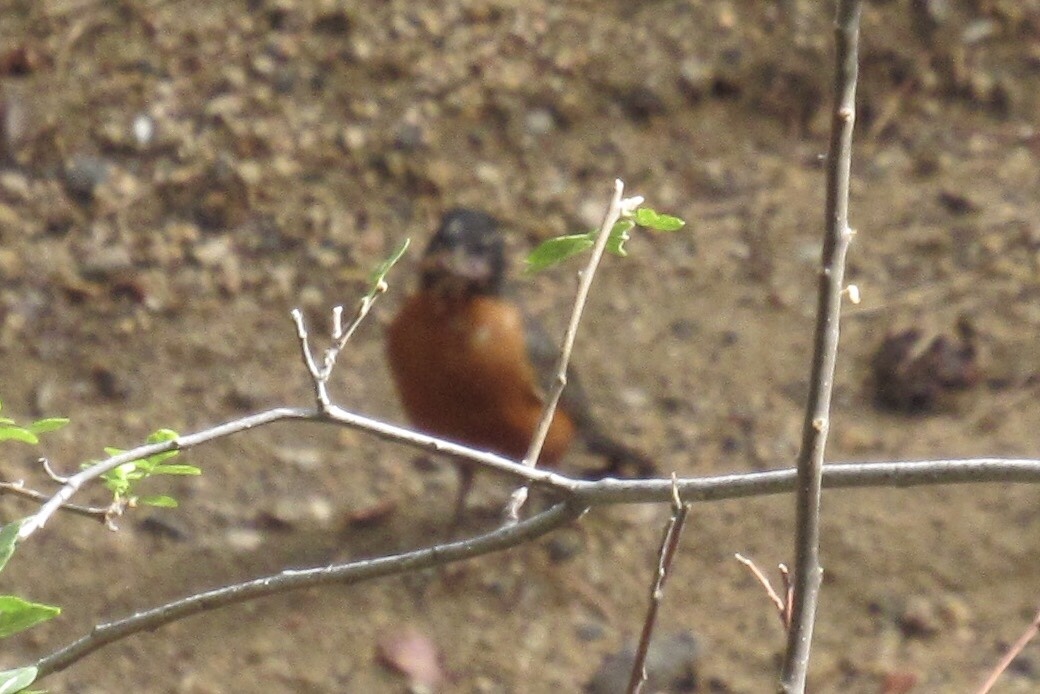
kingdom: Animalia
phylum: Chordata
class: Aves
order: Passeriformes
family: Turdidae
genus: Turdus
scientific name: Turdus migratorius
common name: American robin
